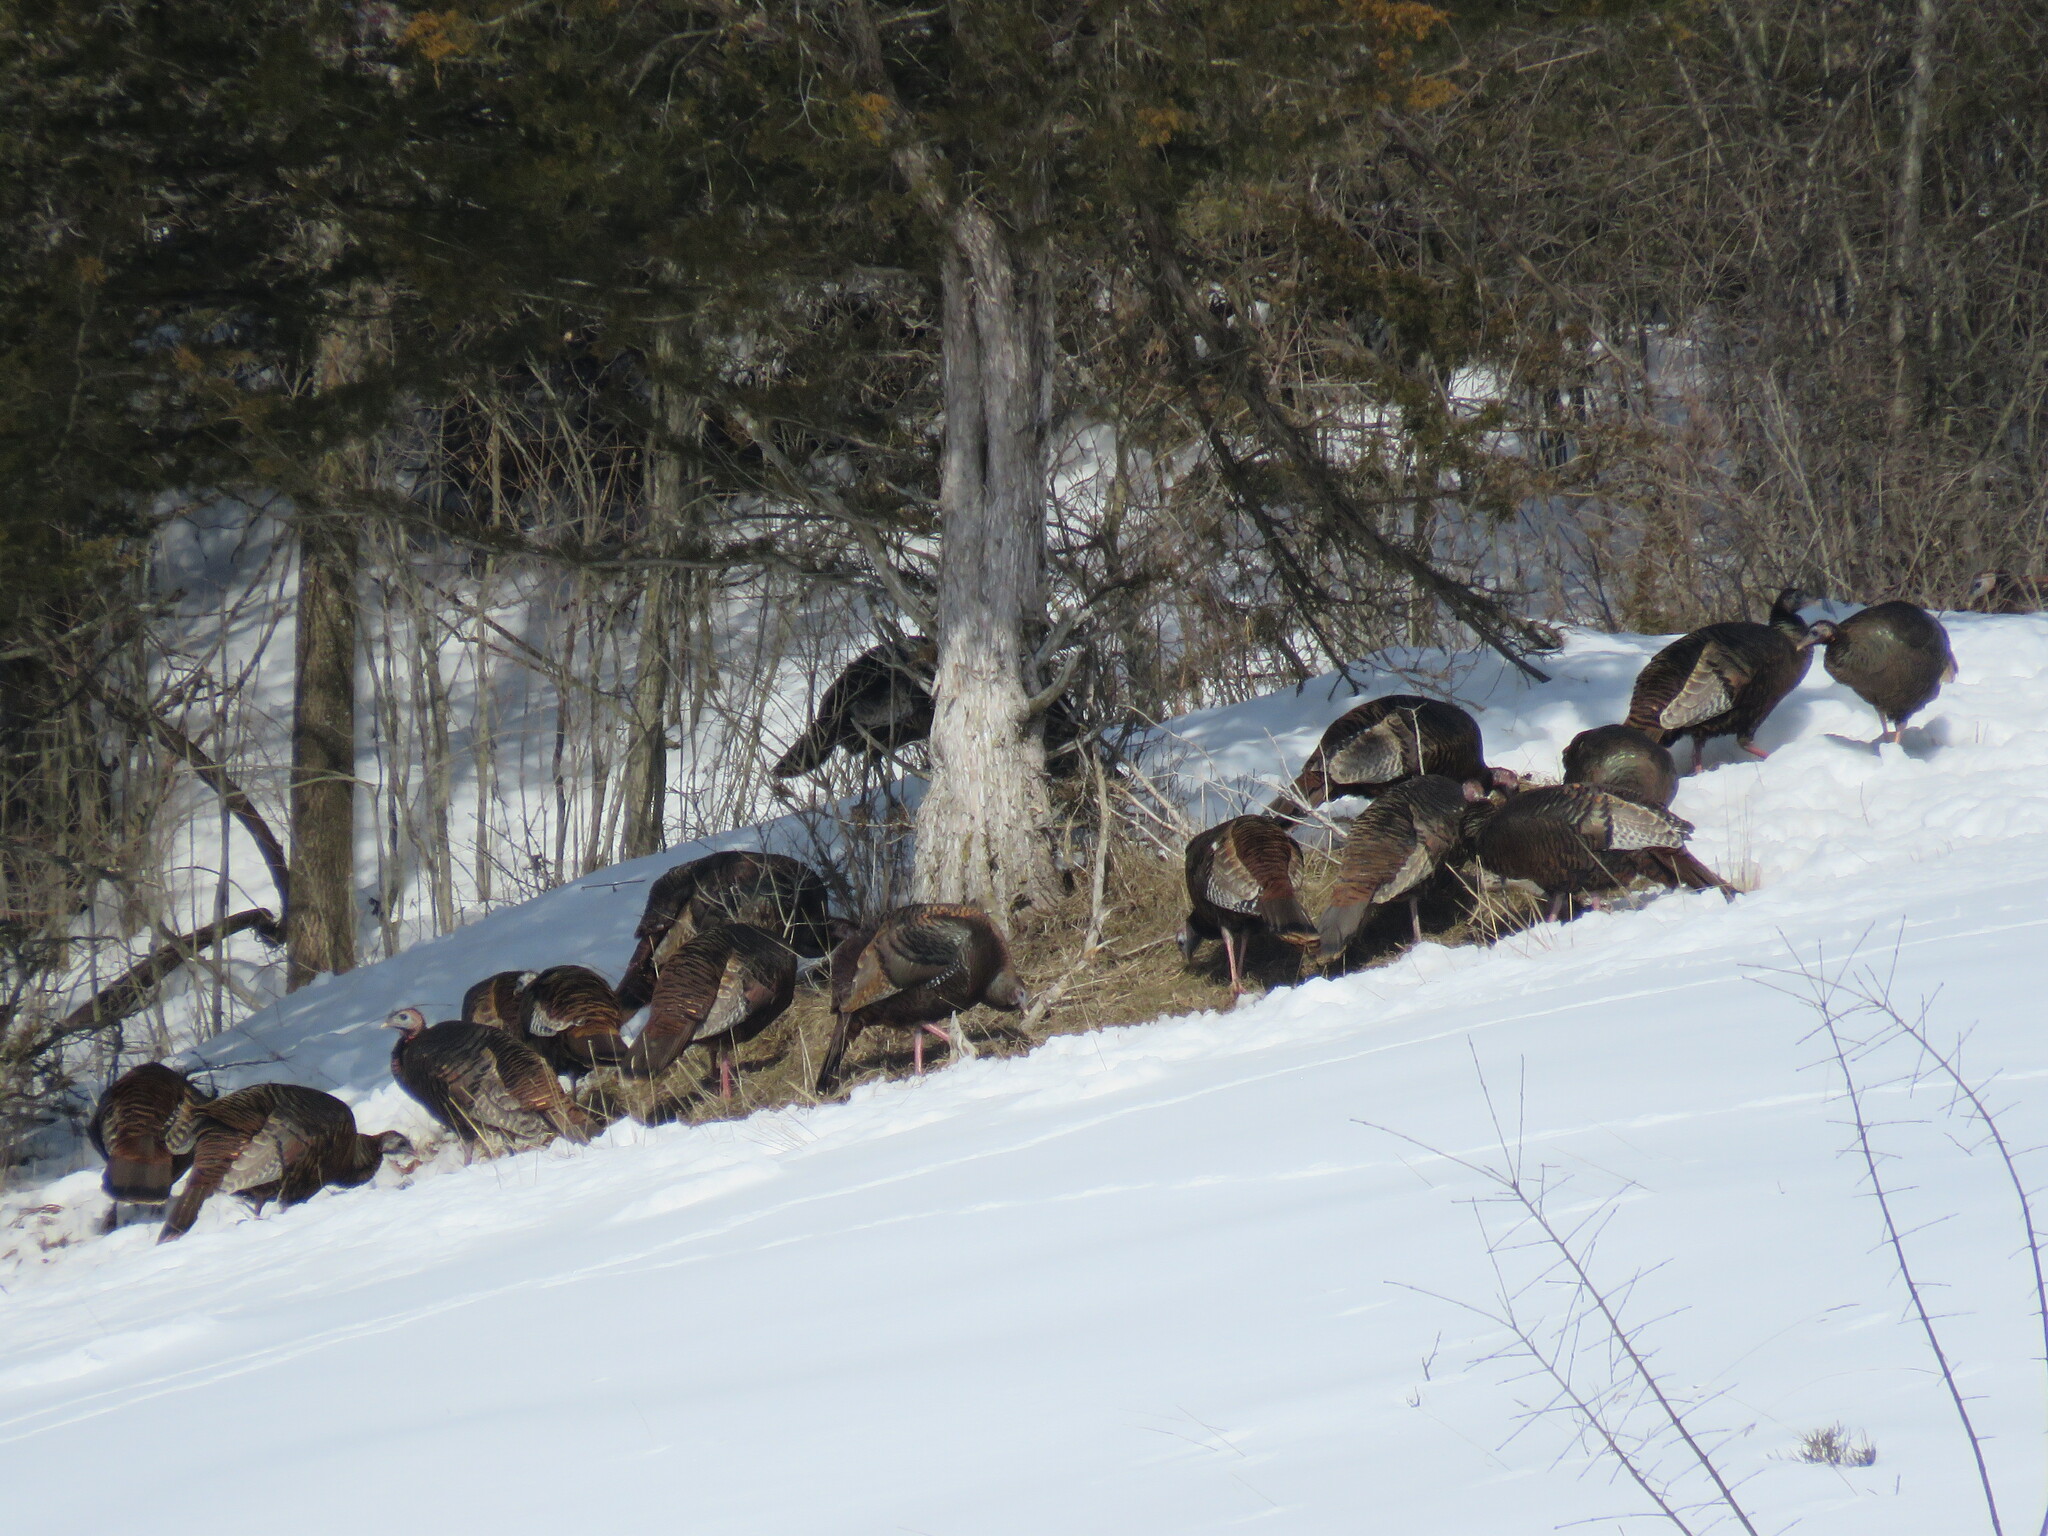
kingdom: Animalia
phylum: Chordata
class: Aves
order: Galliformes
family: Phasianidae
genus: Meleagris
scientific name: Meleagris gallopavo
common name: Wild turkey
